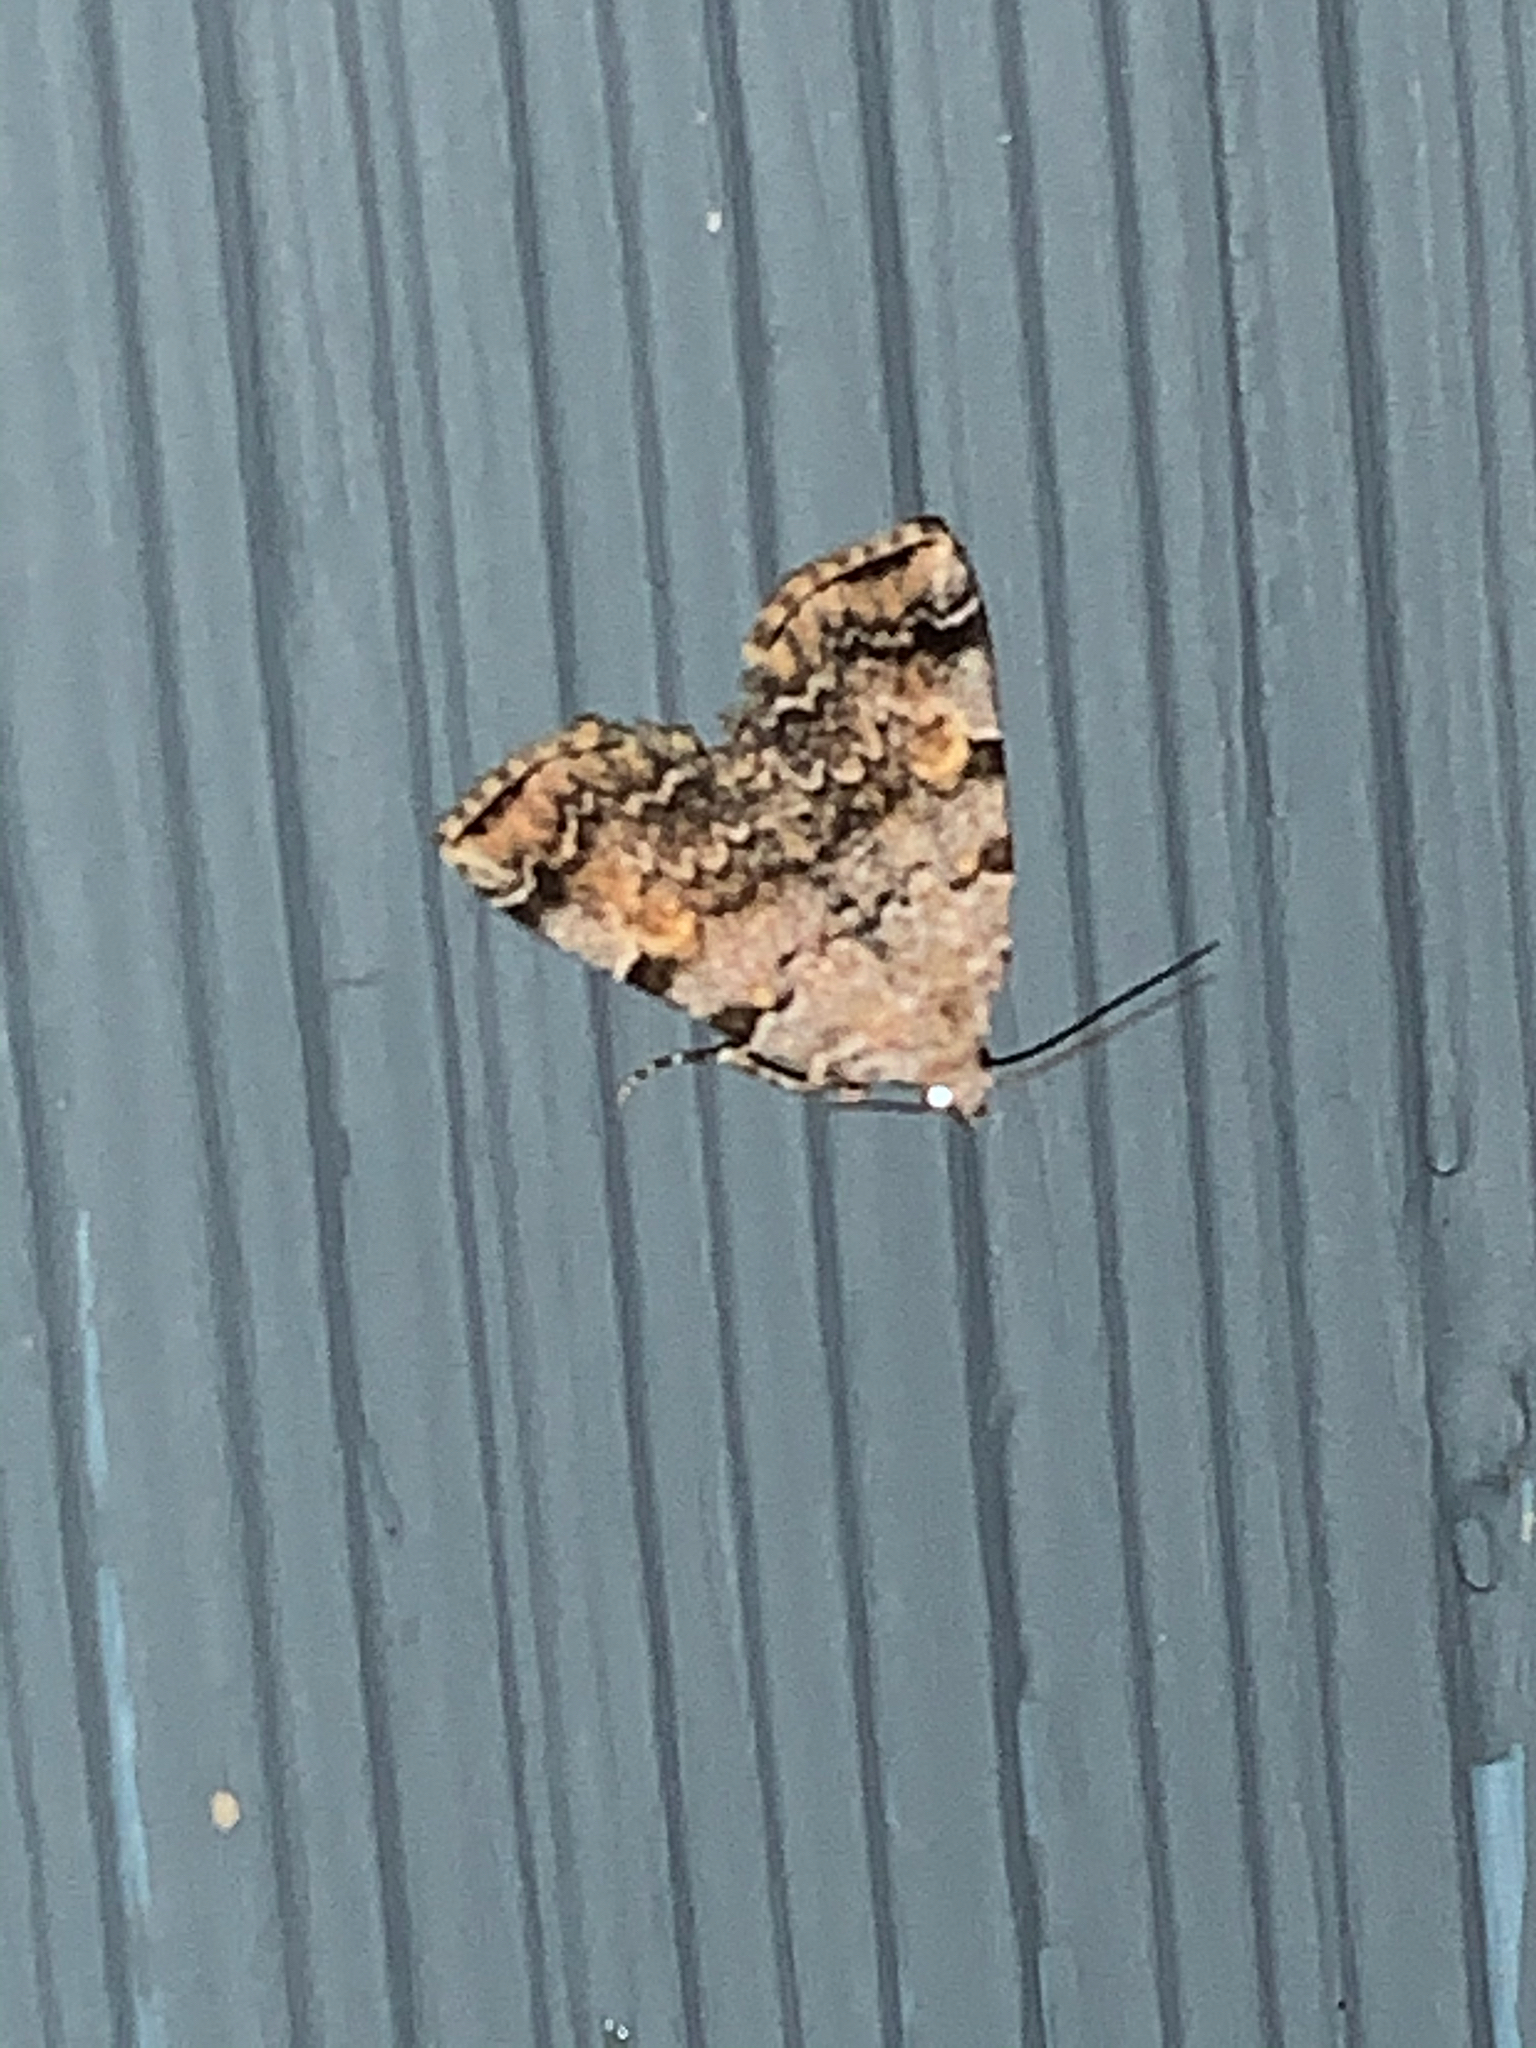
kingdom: Animalia
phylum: Arthropoda
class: Insecta
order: Lepidoptera
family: Erebidae
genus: Idia
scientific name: Idia americalis
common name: American idia moth
